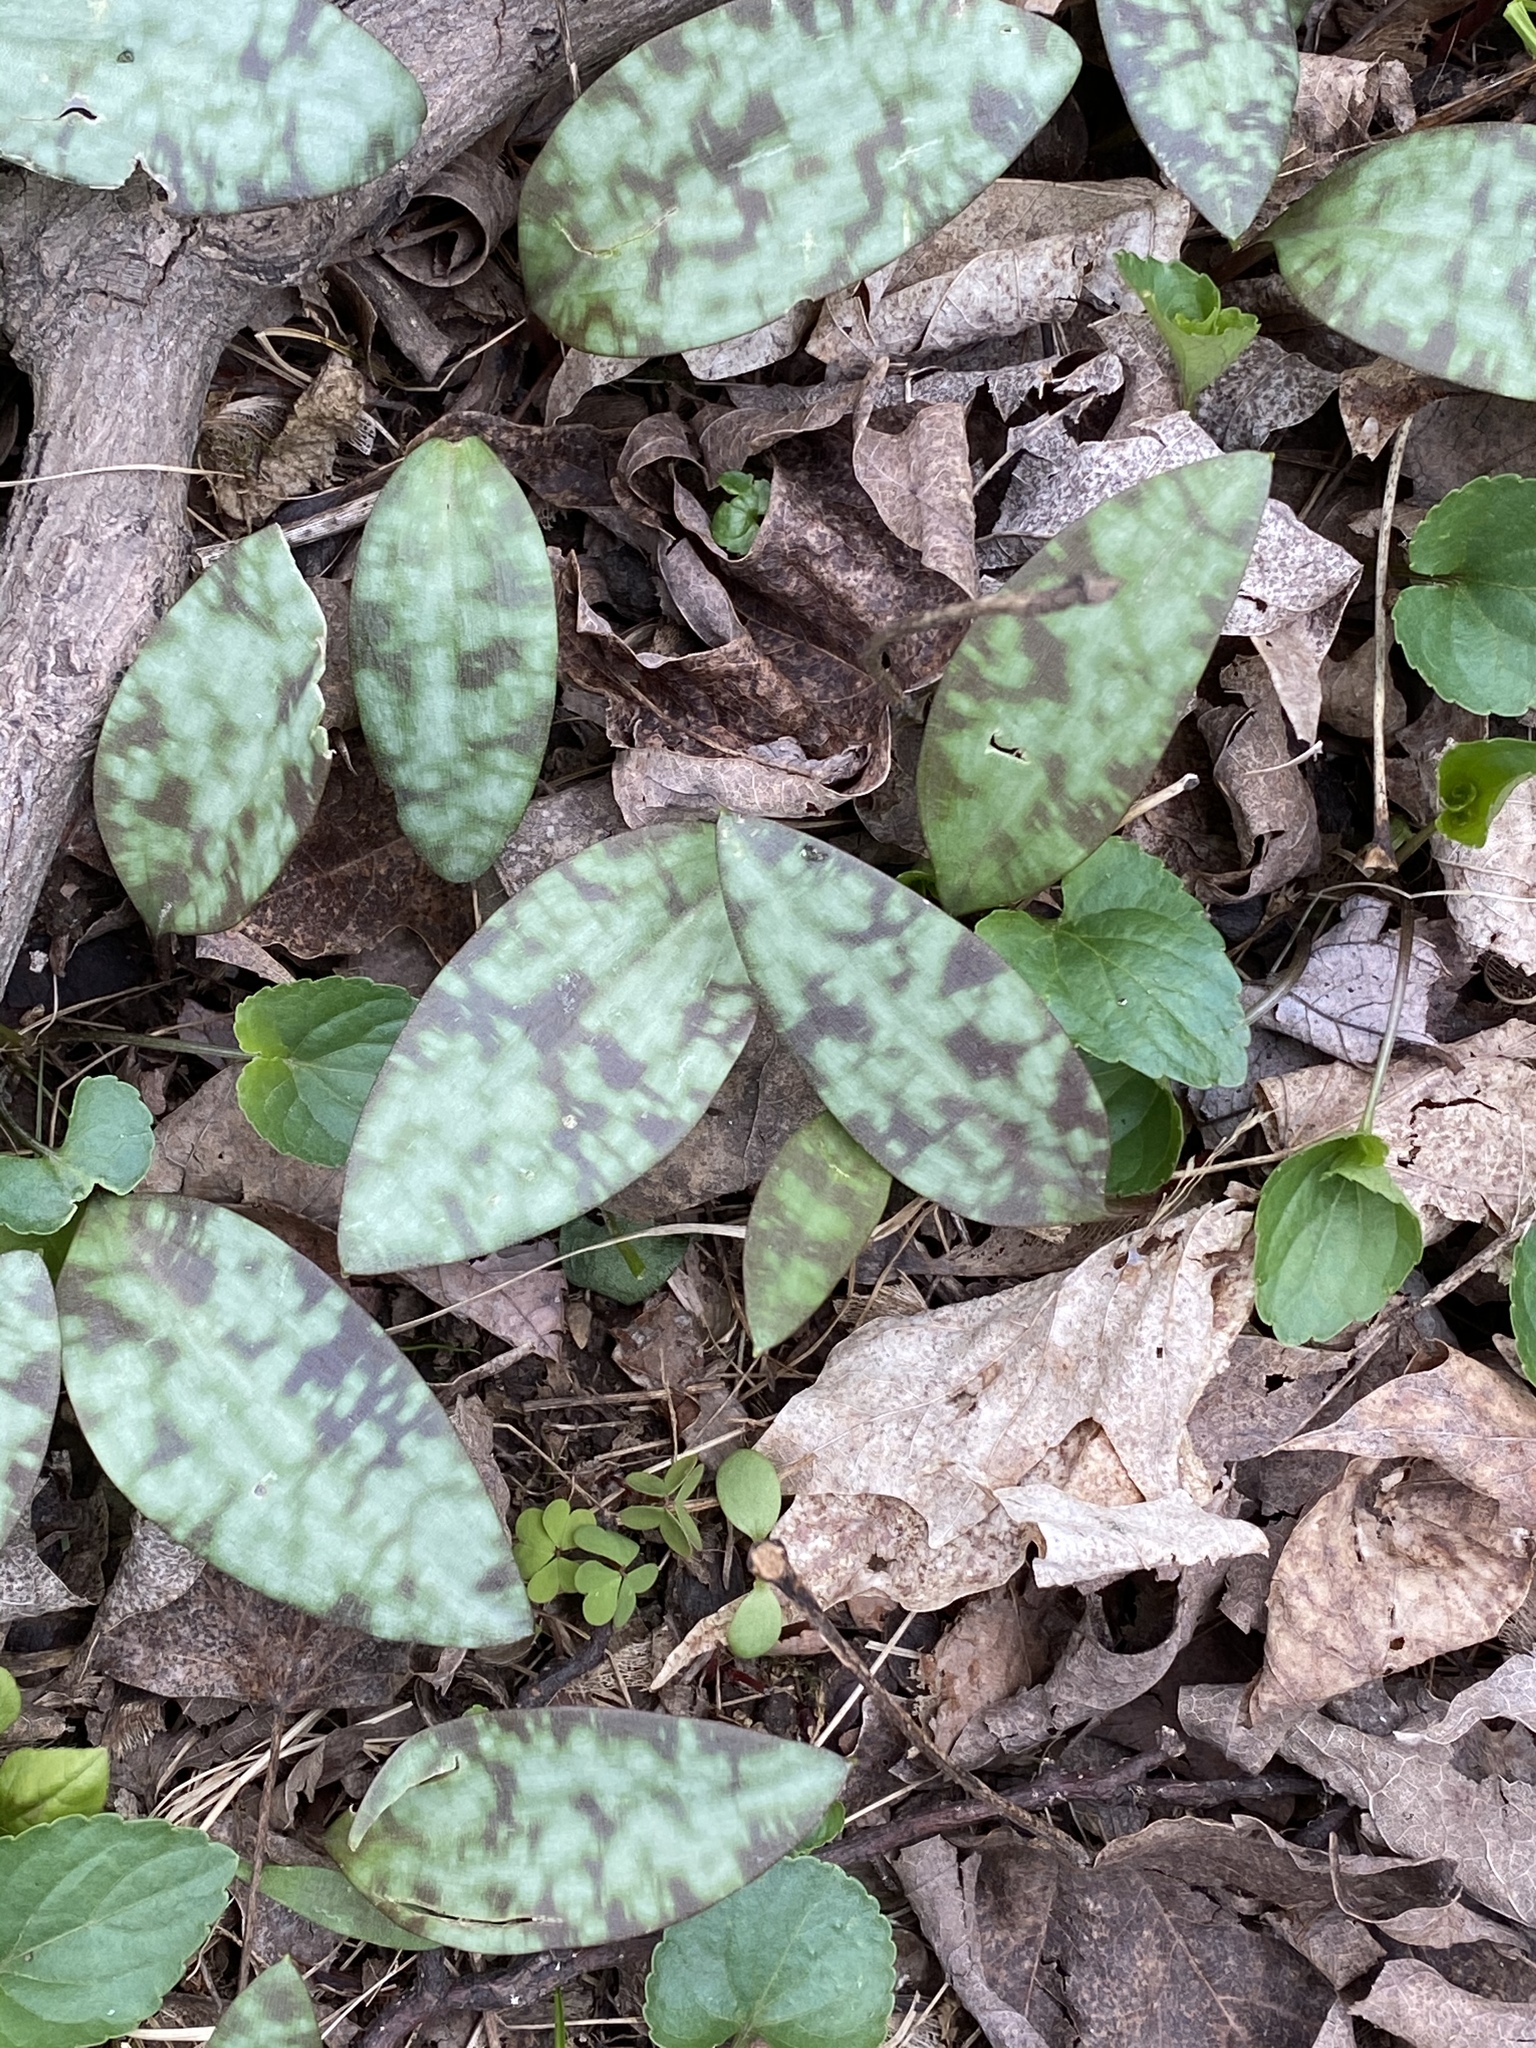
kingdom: Plantae
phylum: Tracheophyta
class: Liliopsida
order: Liliales
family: Liliaceae
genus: Erythronium
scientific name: Erythronium americanum
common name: Yellow adder's-tongue
